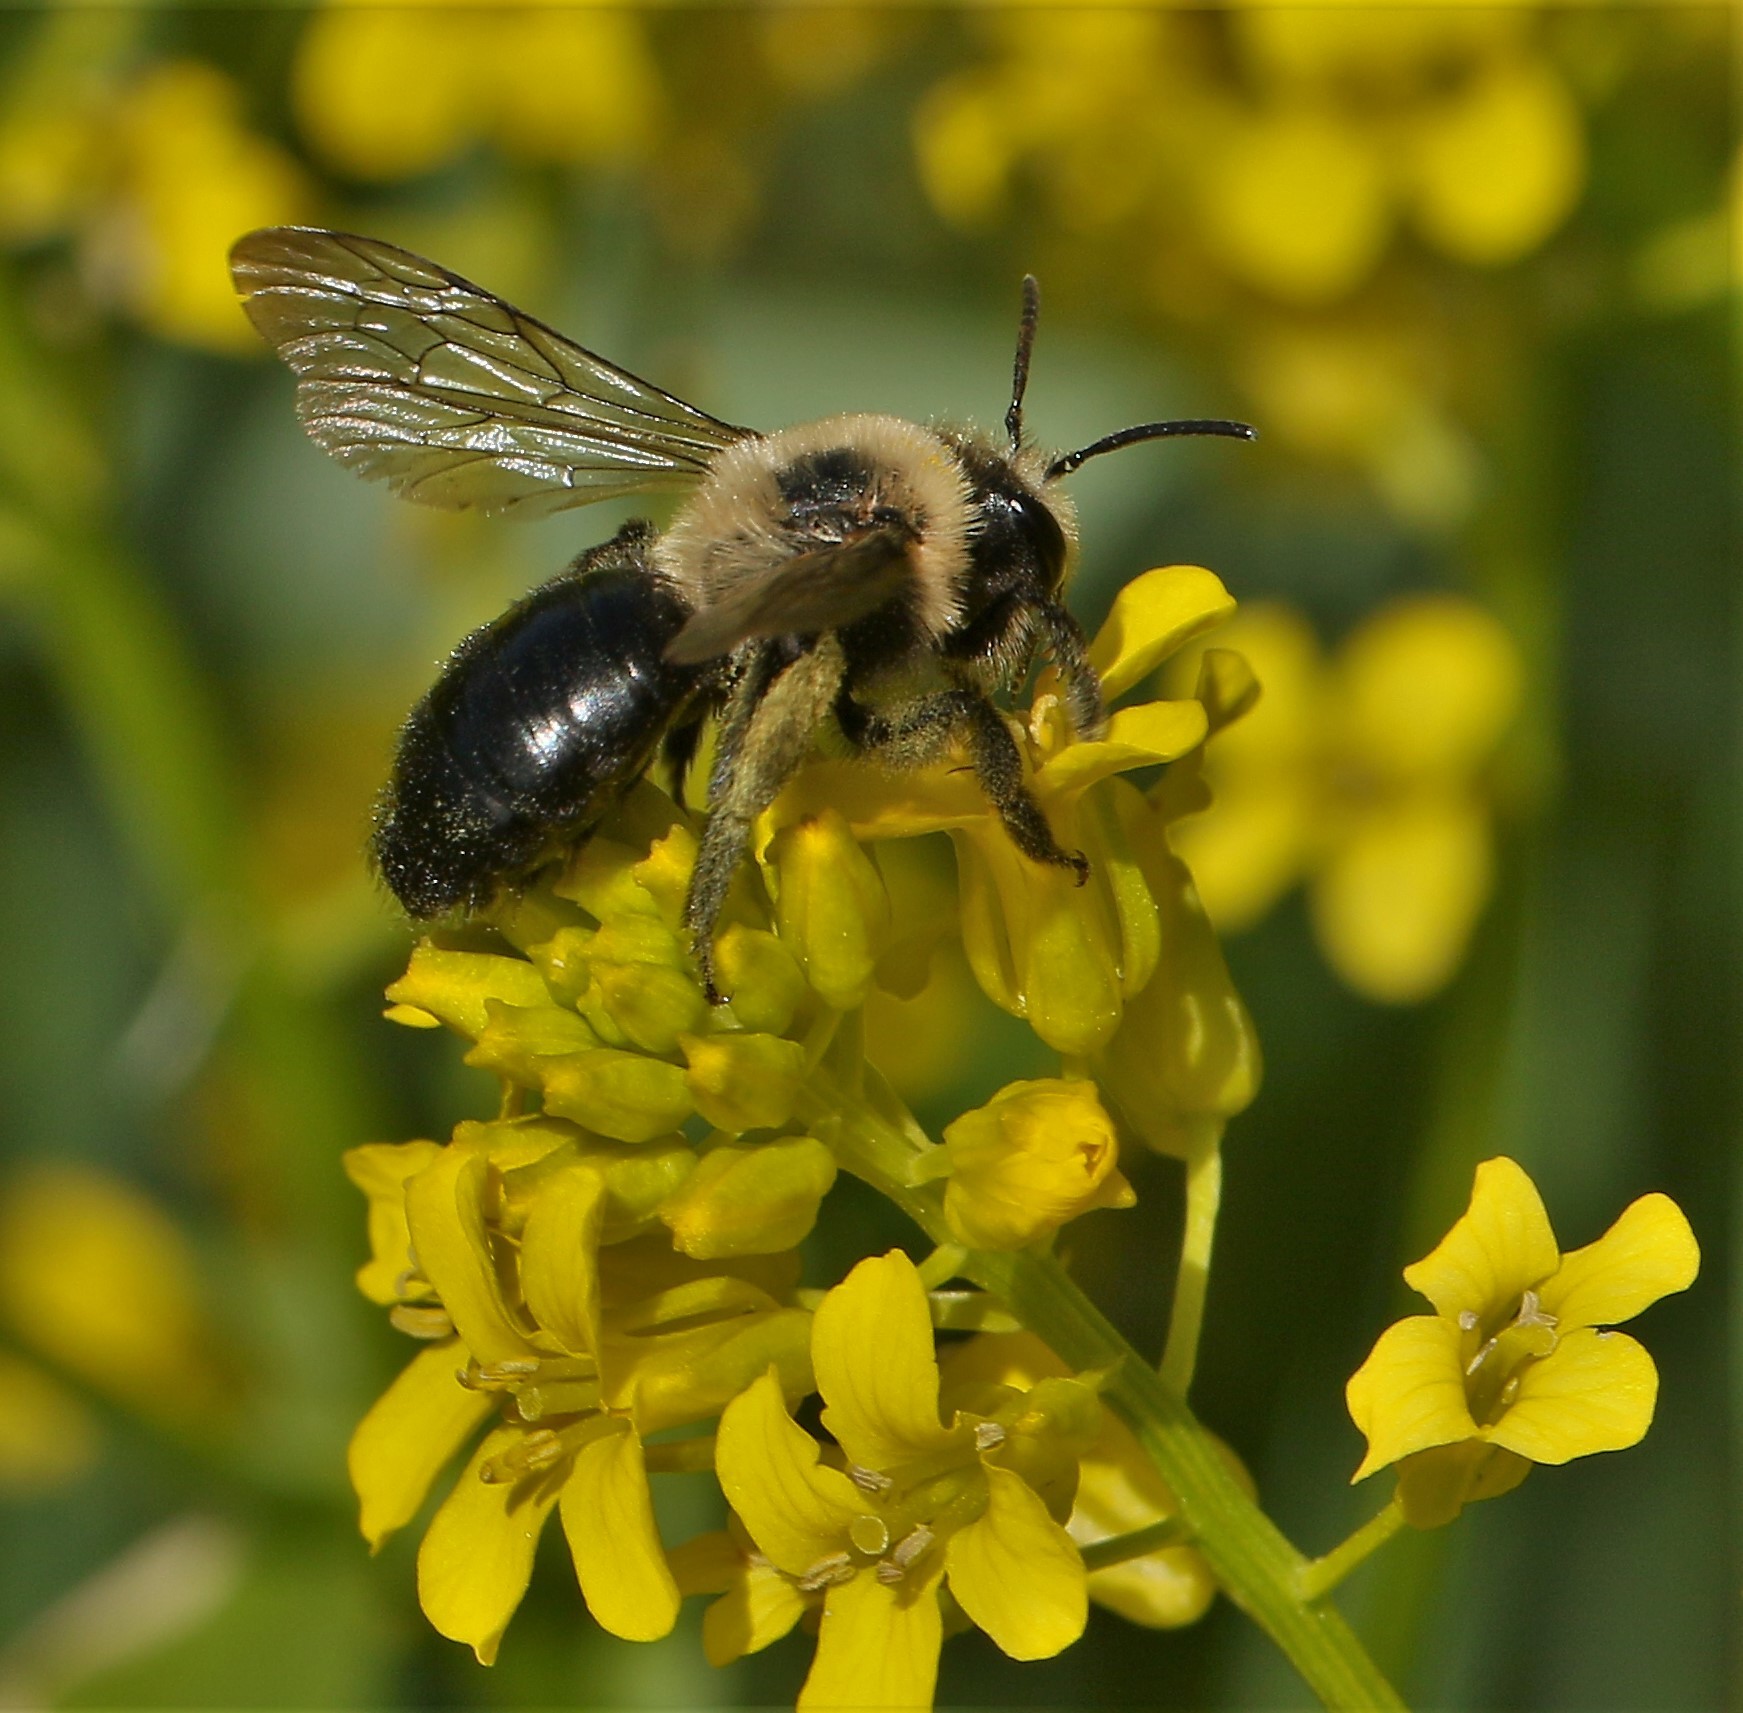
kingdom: Animalia
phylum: Arthropoda
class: Insecta
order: Hymenoptera
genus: Melandrena
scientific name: Melandrena
